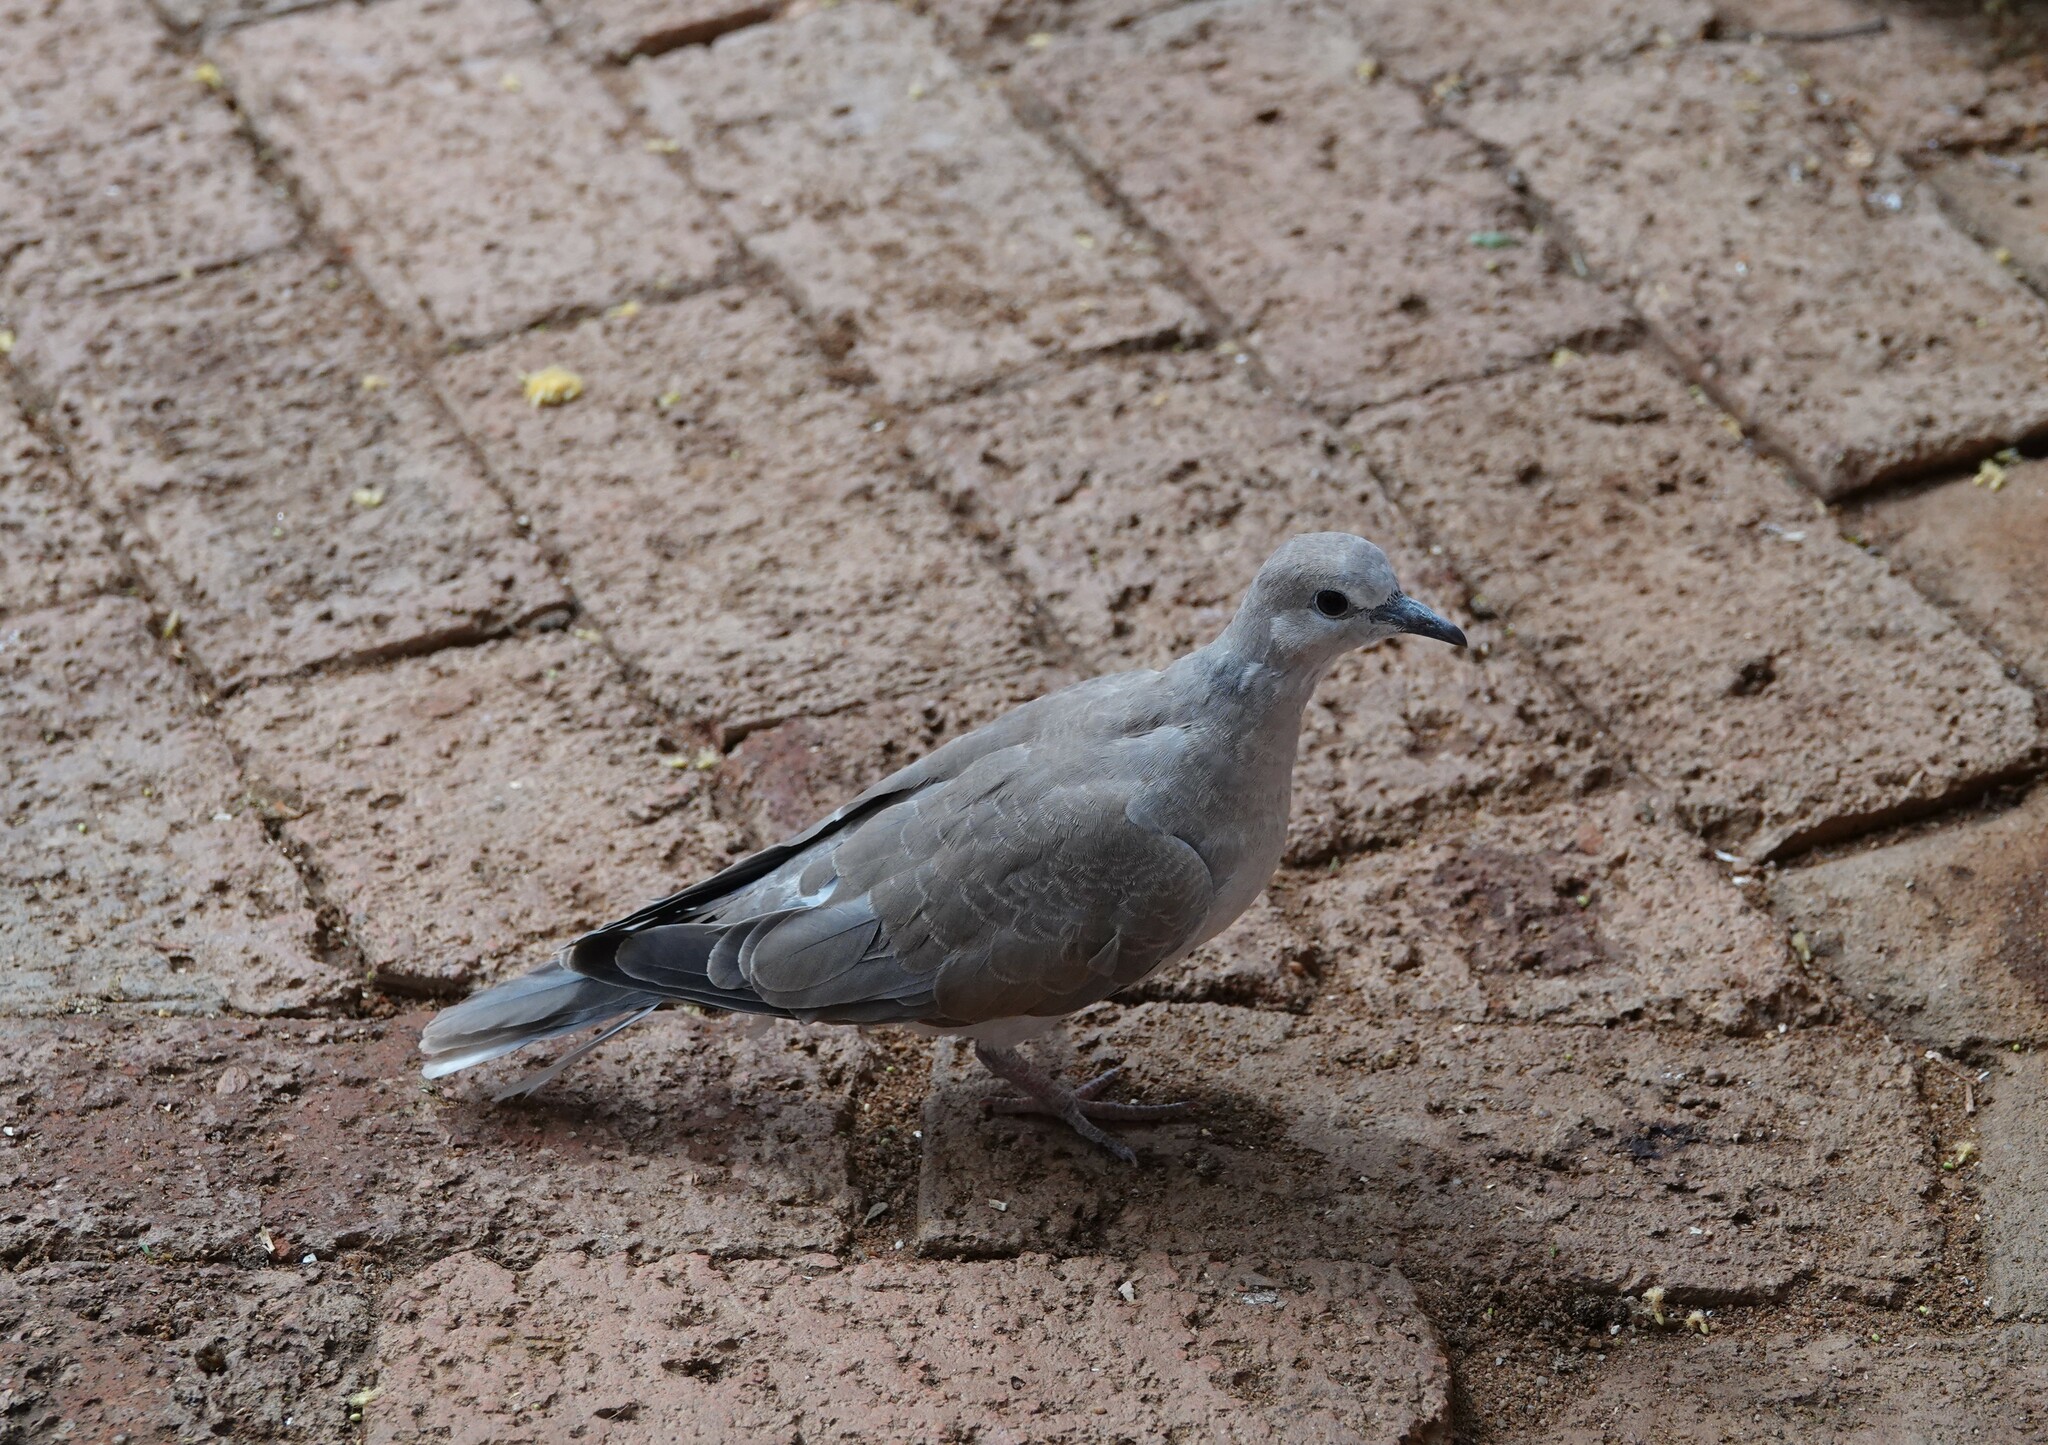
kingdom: Animalia
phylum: Chordata
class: Aves
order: Columbiformes
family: Columbidae
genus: Spilopelia
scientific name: Spilopelia senegalensis
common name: Laughing dove
